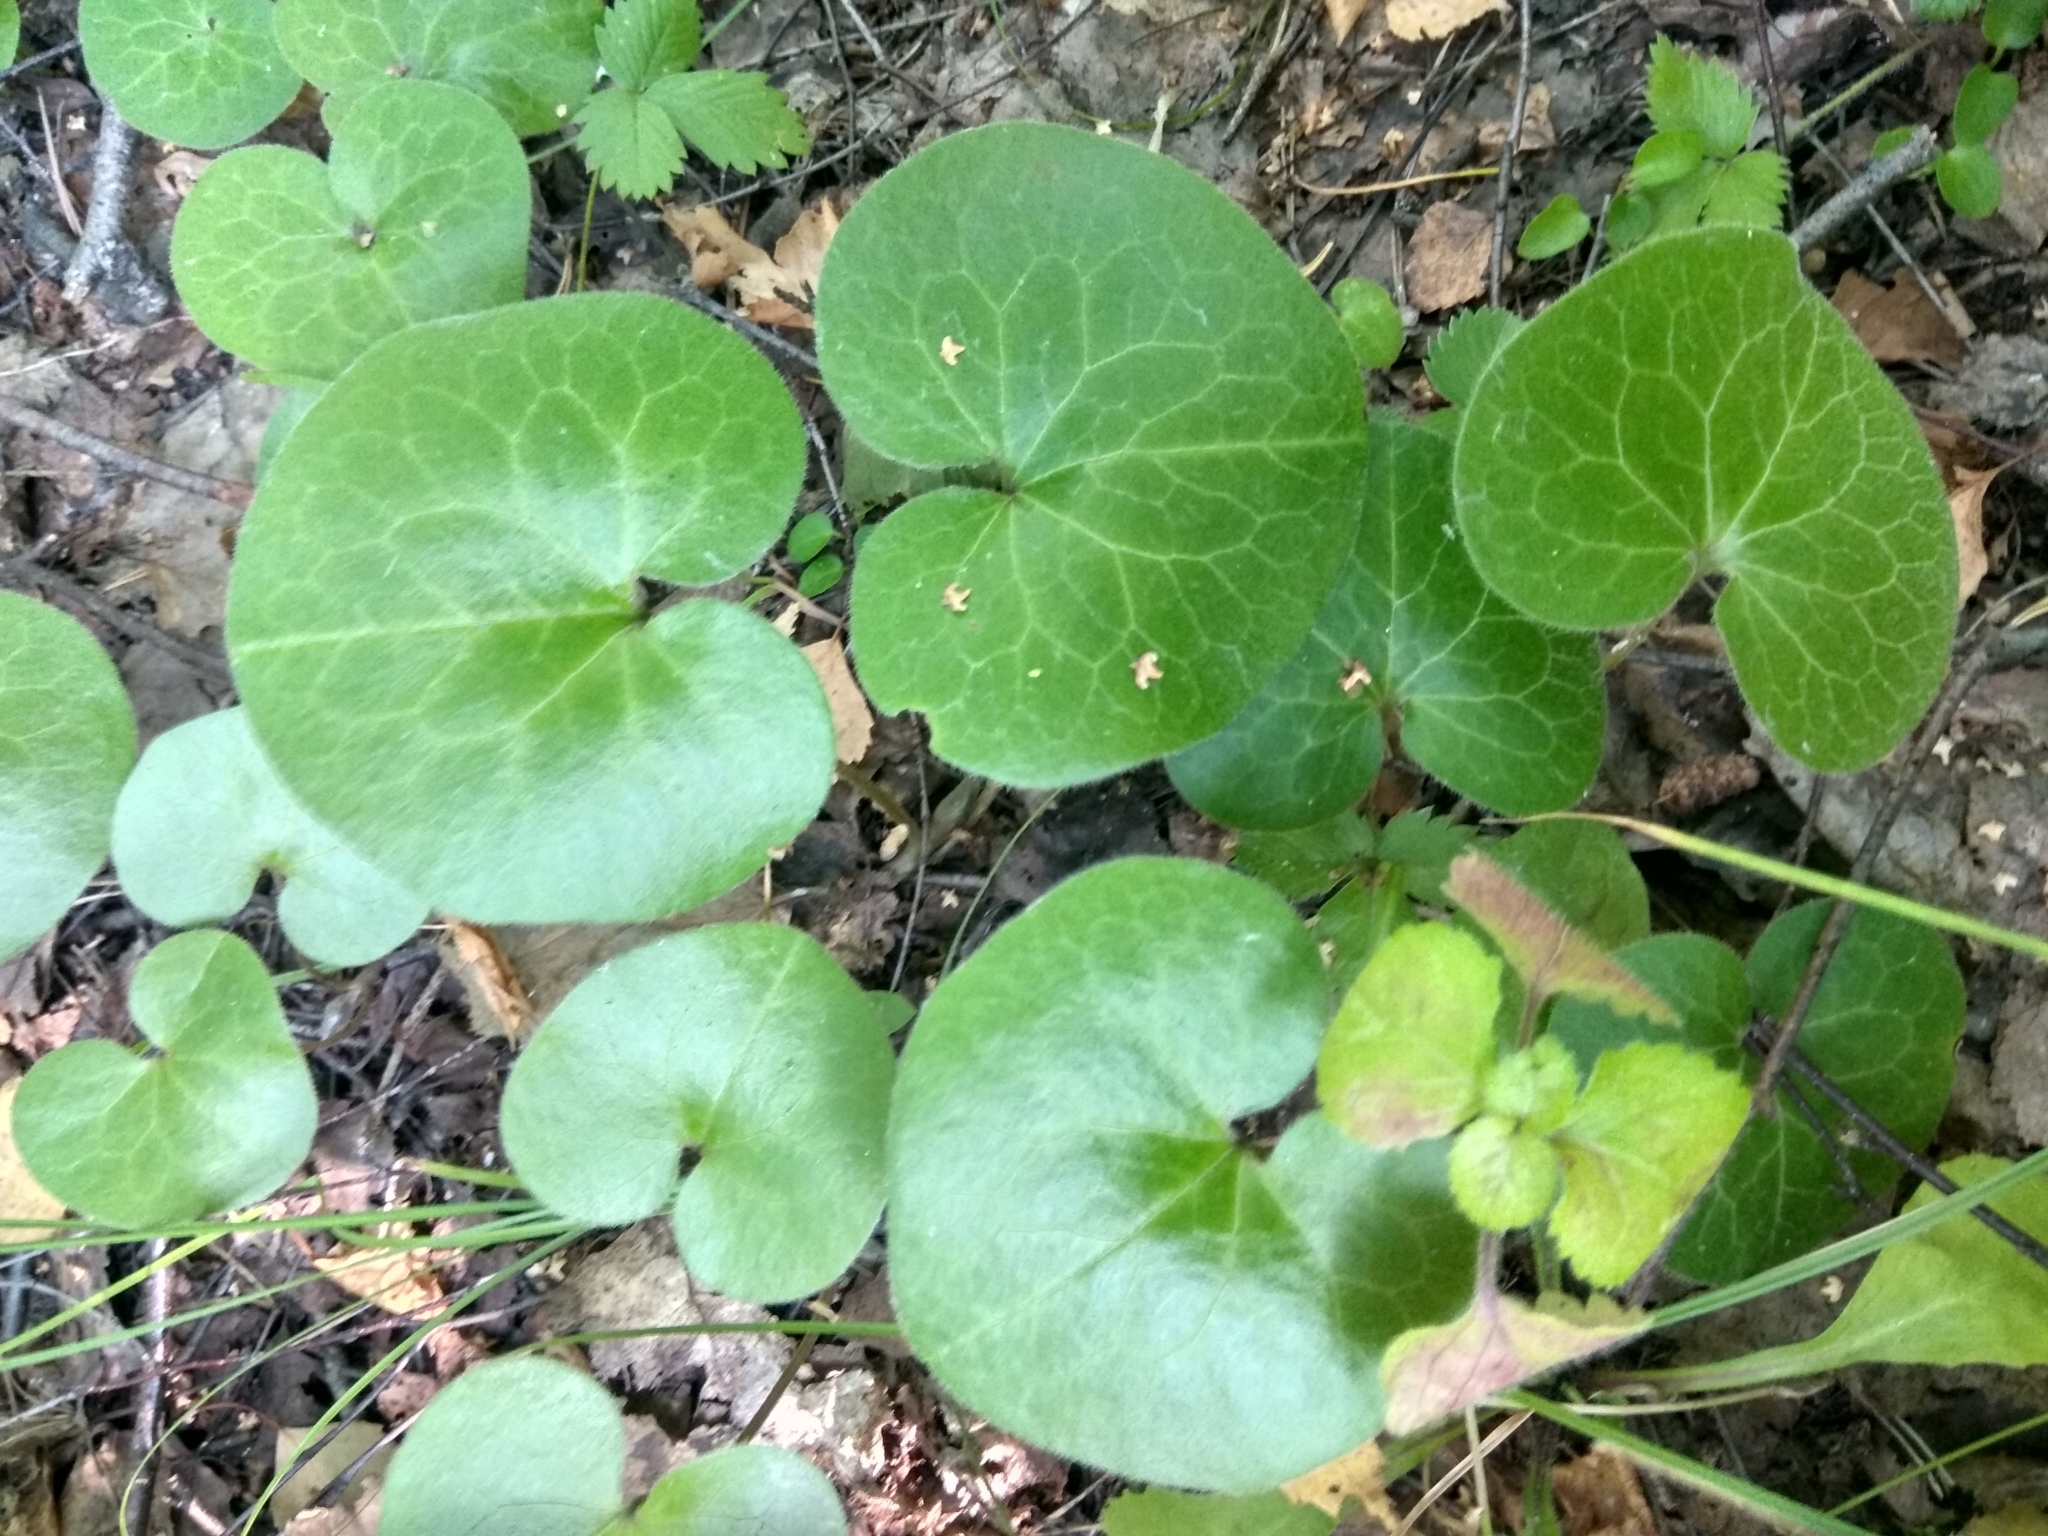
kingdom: Plantae
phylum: Tracheophyta
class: Magnoliopsida
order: Piperales
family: Aristolochiaceae
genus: Asarum
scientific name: Asarum europaeum
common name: Asarabacca
